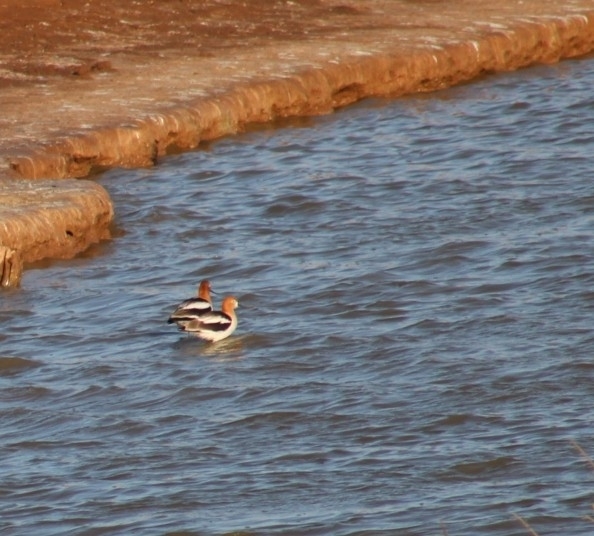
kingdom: Animalia
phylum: Chordata
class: Aves
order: Charadriiformes
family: Recurvirostridae
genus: Recurvirostra
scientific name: Recurvirostra americana
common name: American avocet
